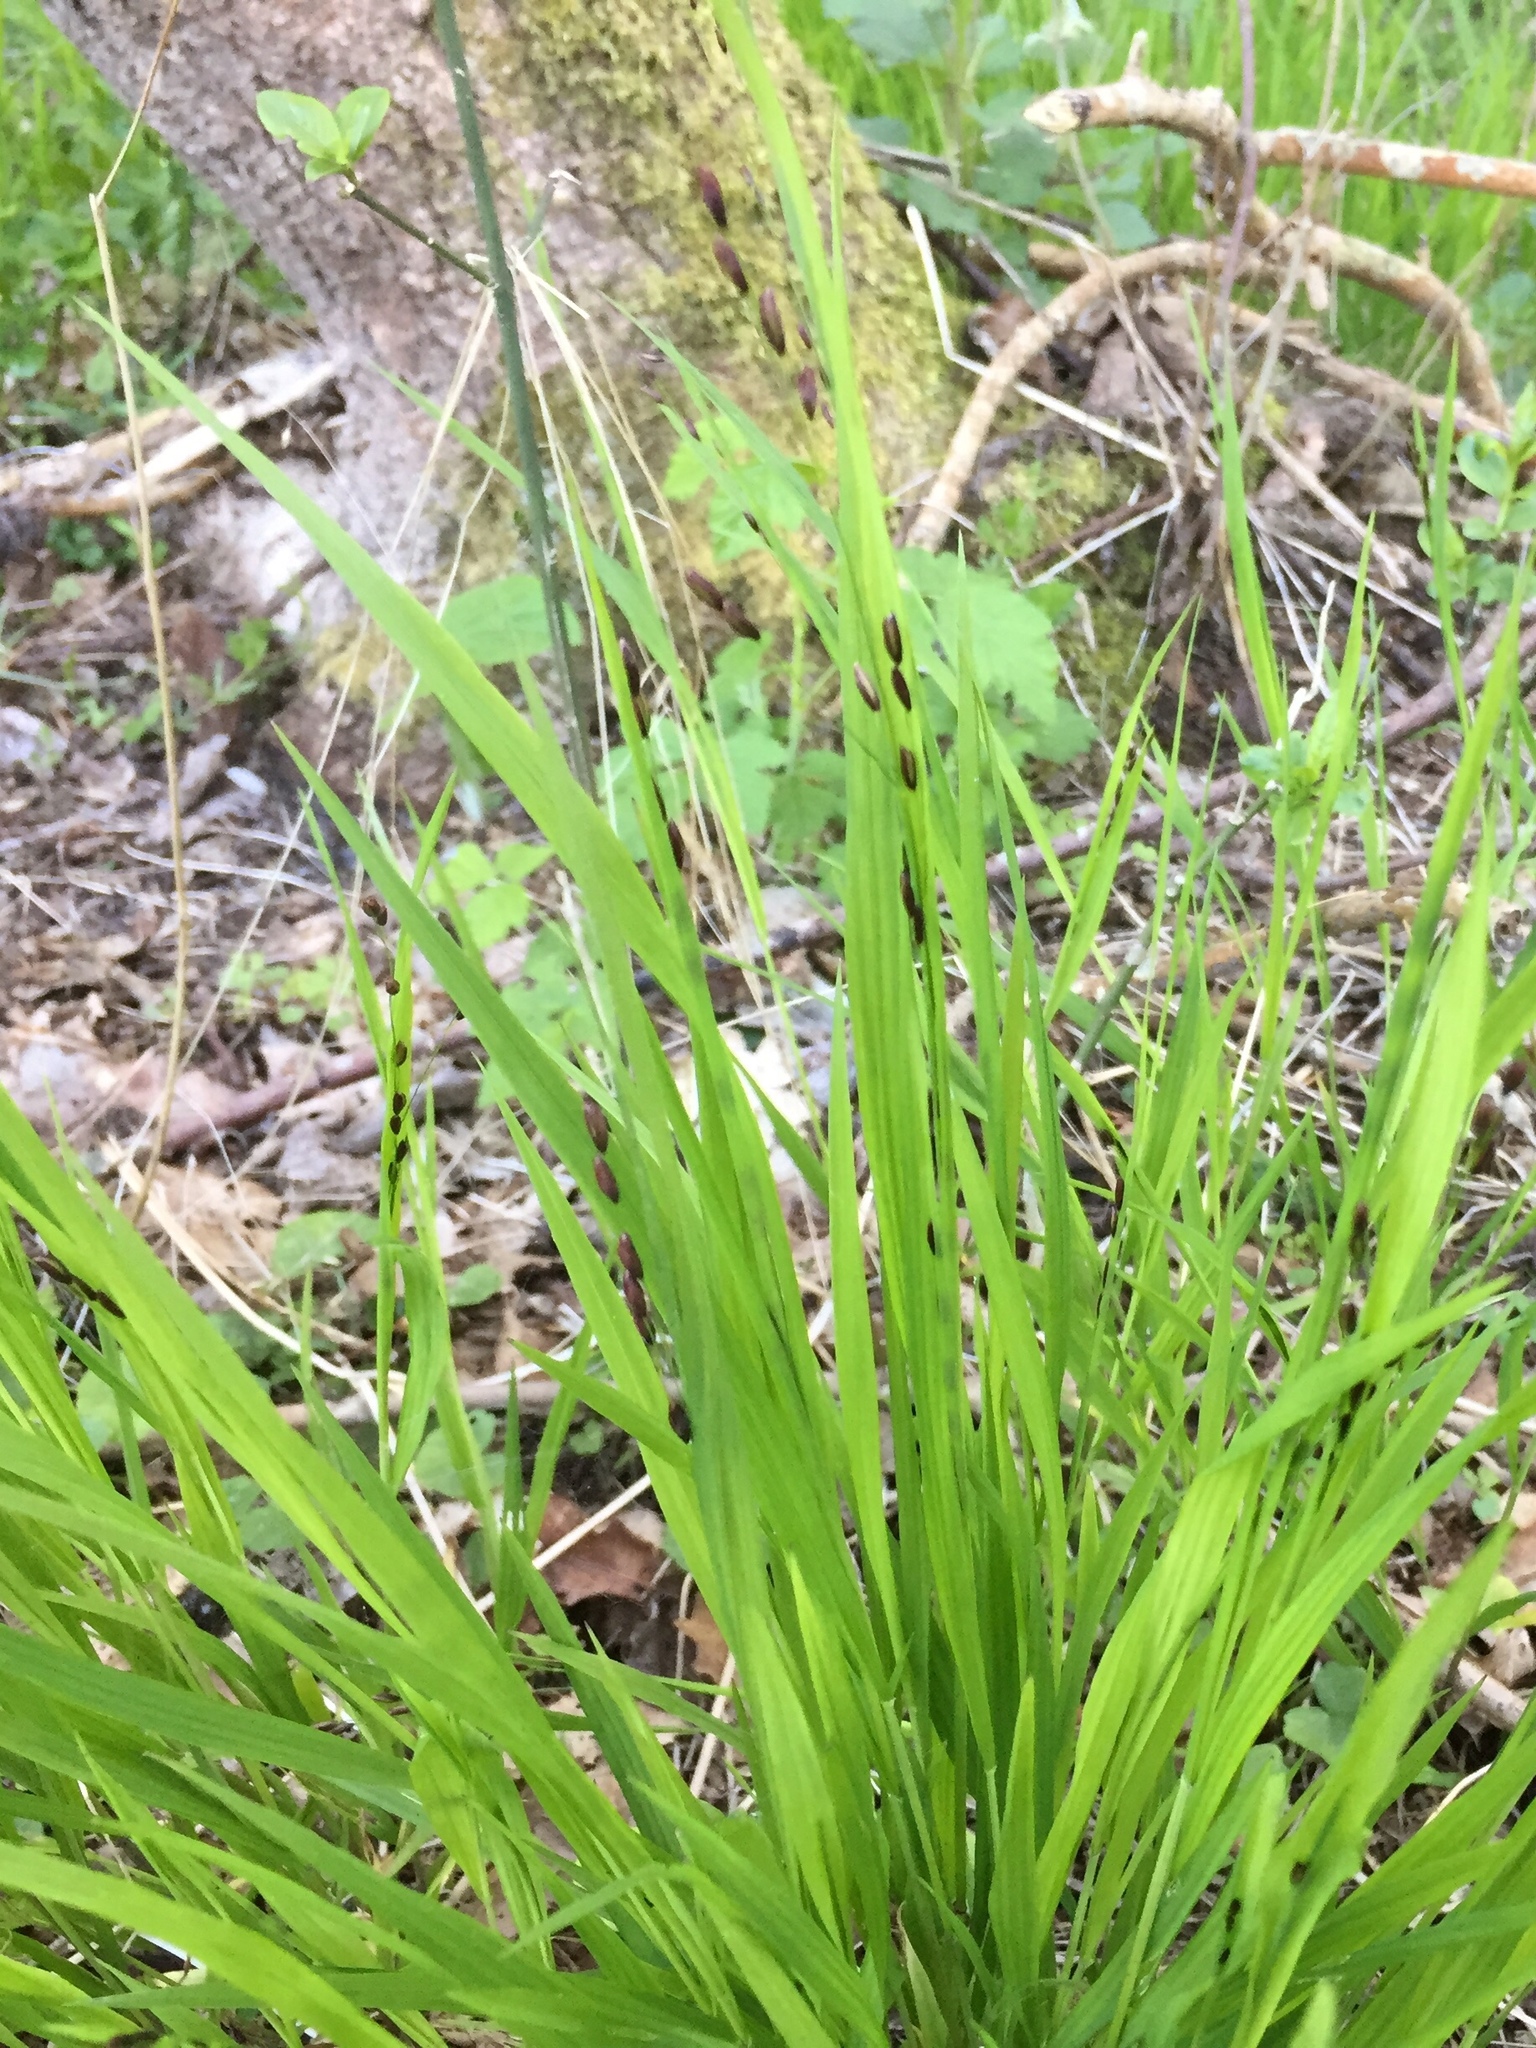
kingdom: Plantae
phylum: Tracheophyta
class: Liliopsida
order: Poales
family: Poaceae
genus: Melica
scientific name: Melica uniflora
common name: Wood melick
